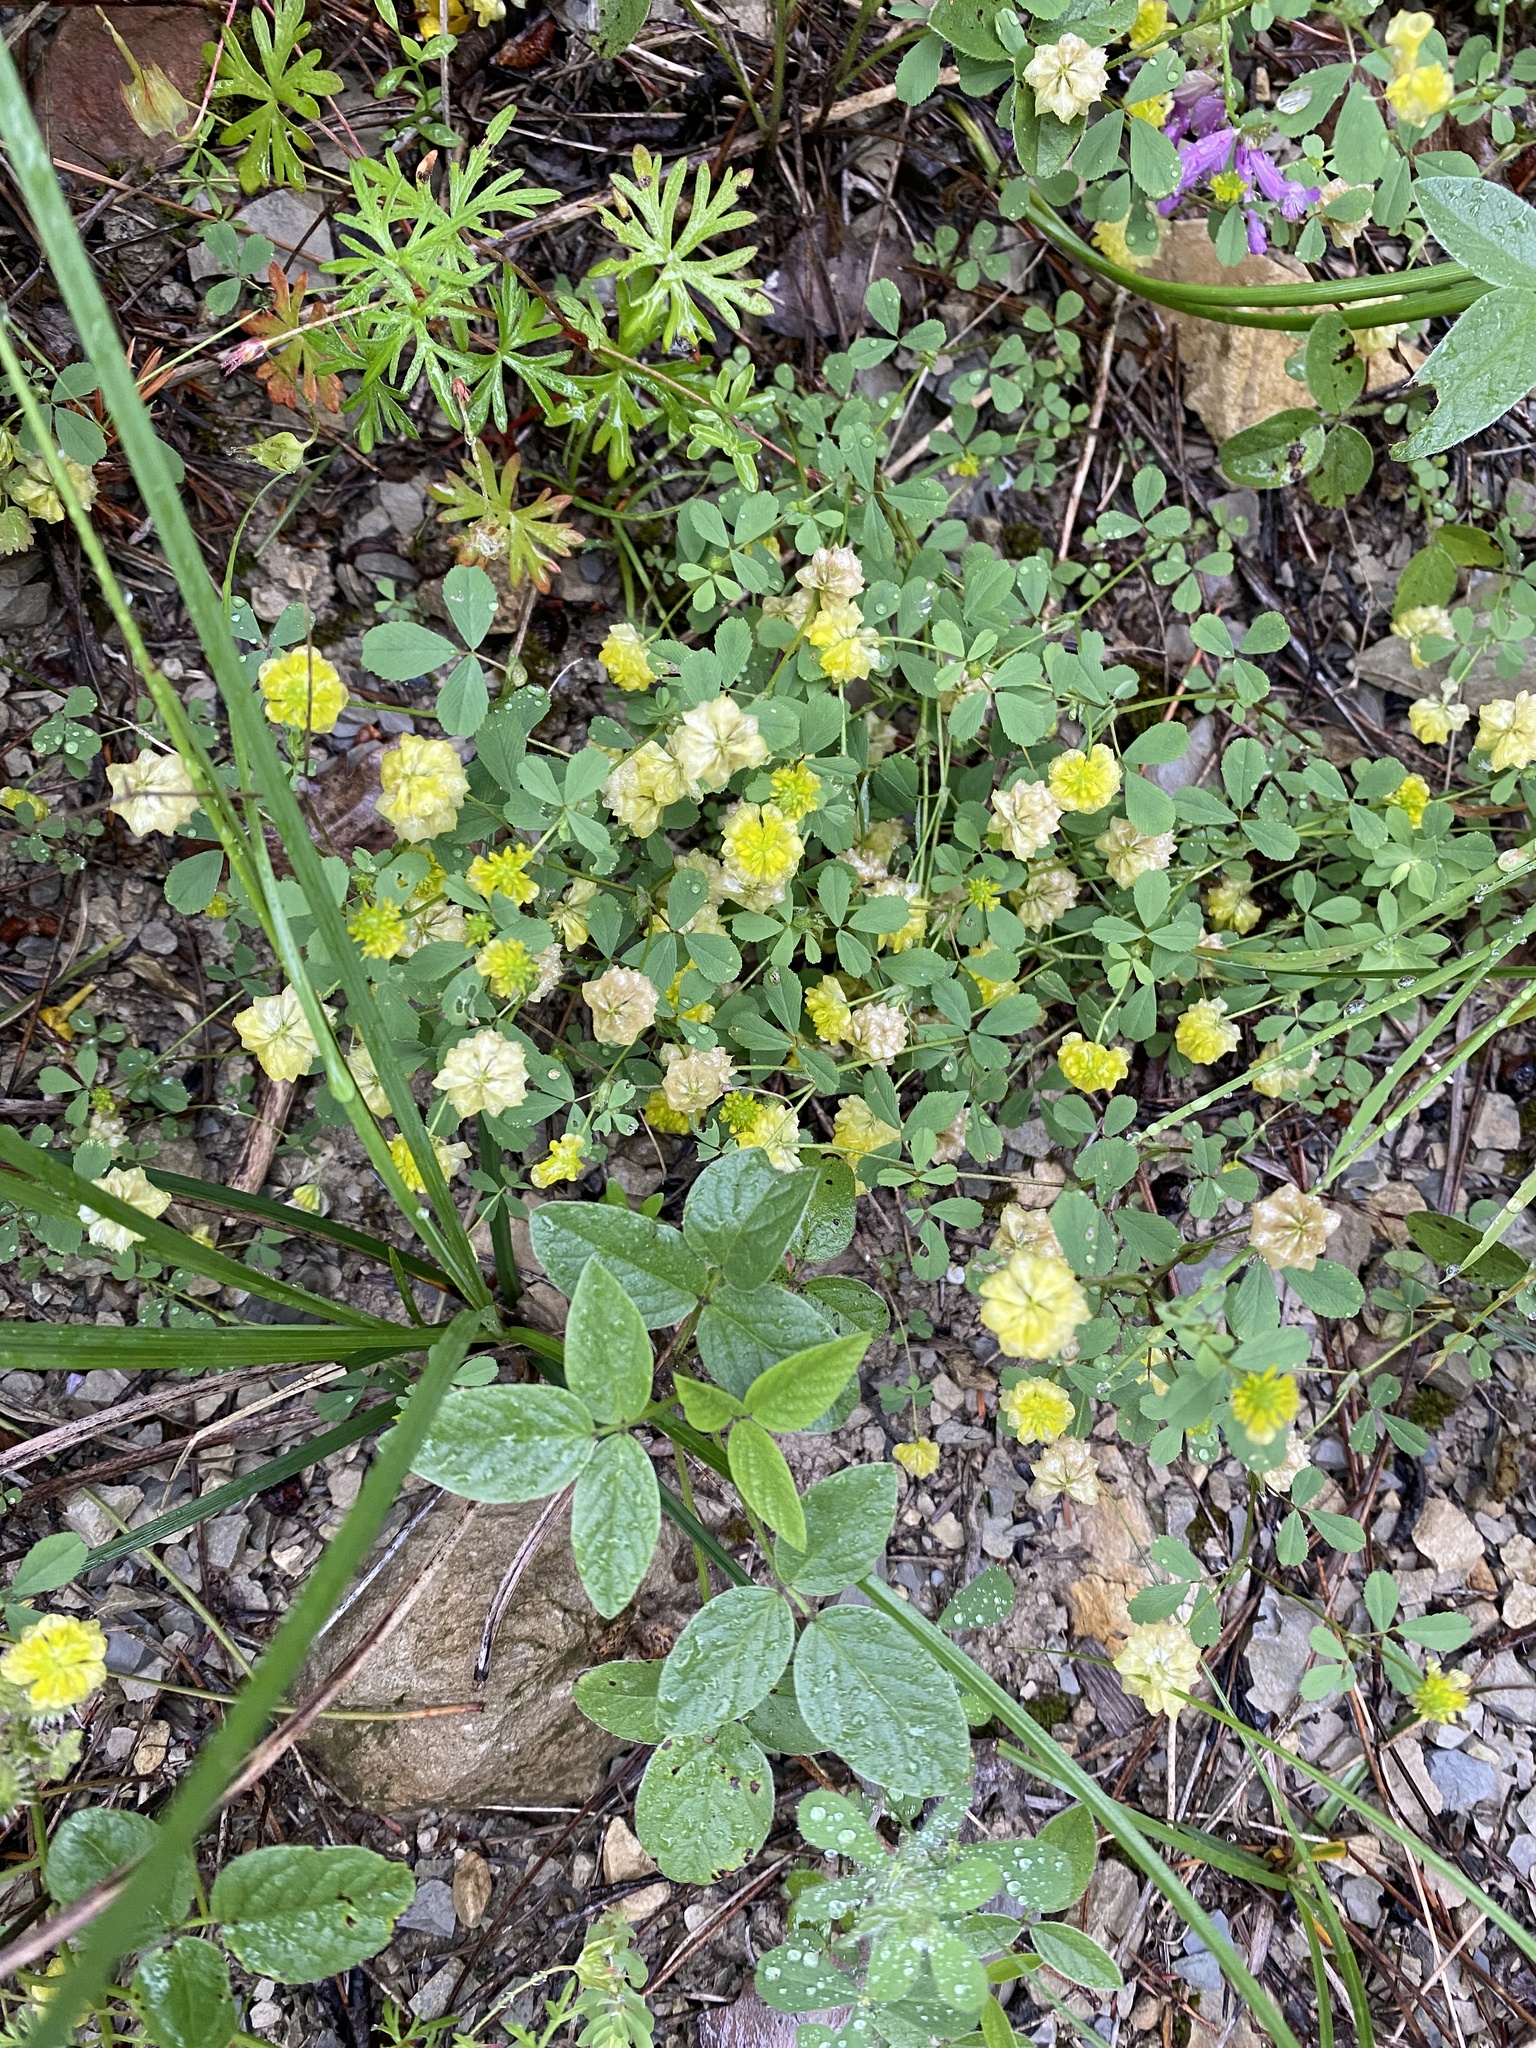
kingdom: Plantae
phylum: Tracheophyta
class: Magnoliopsida
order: Fabales
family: Fabaceae
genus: Trifolium
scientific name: Trifolium campestre
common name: Field clover
